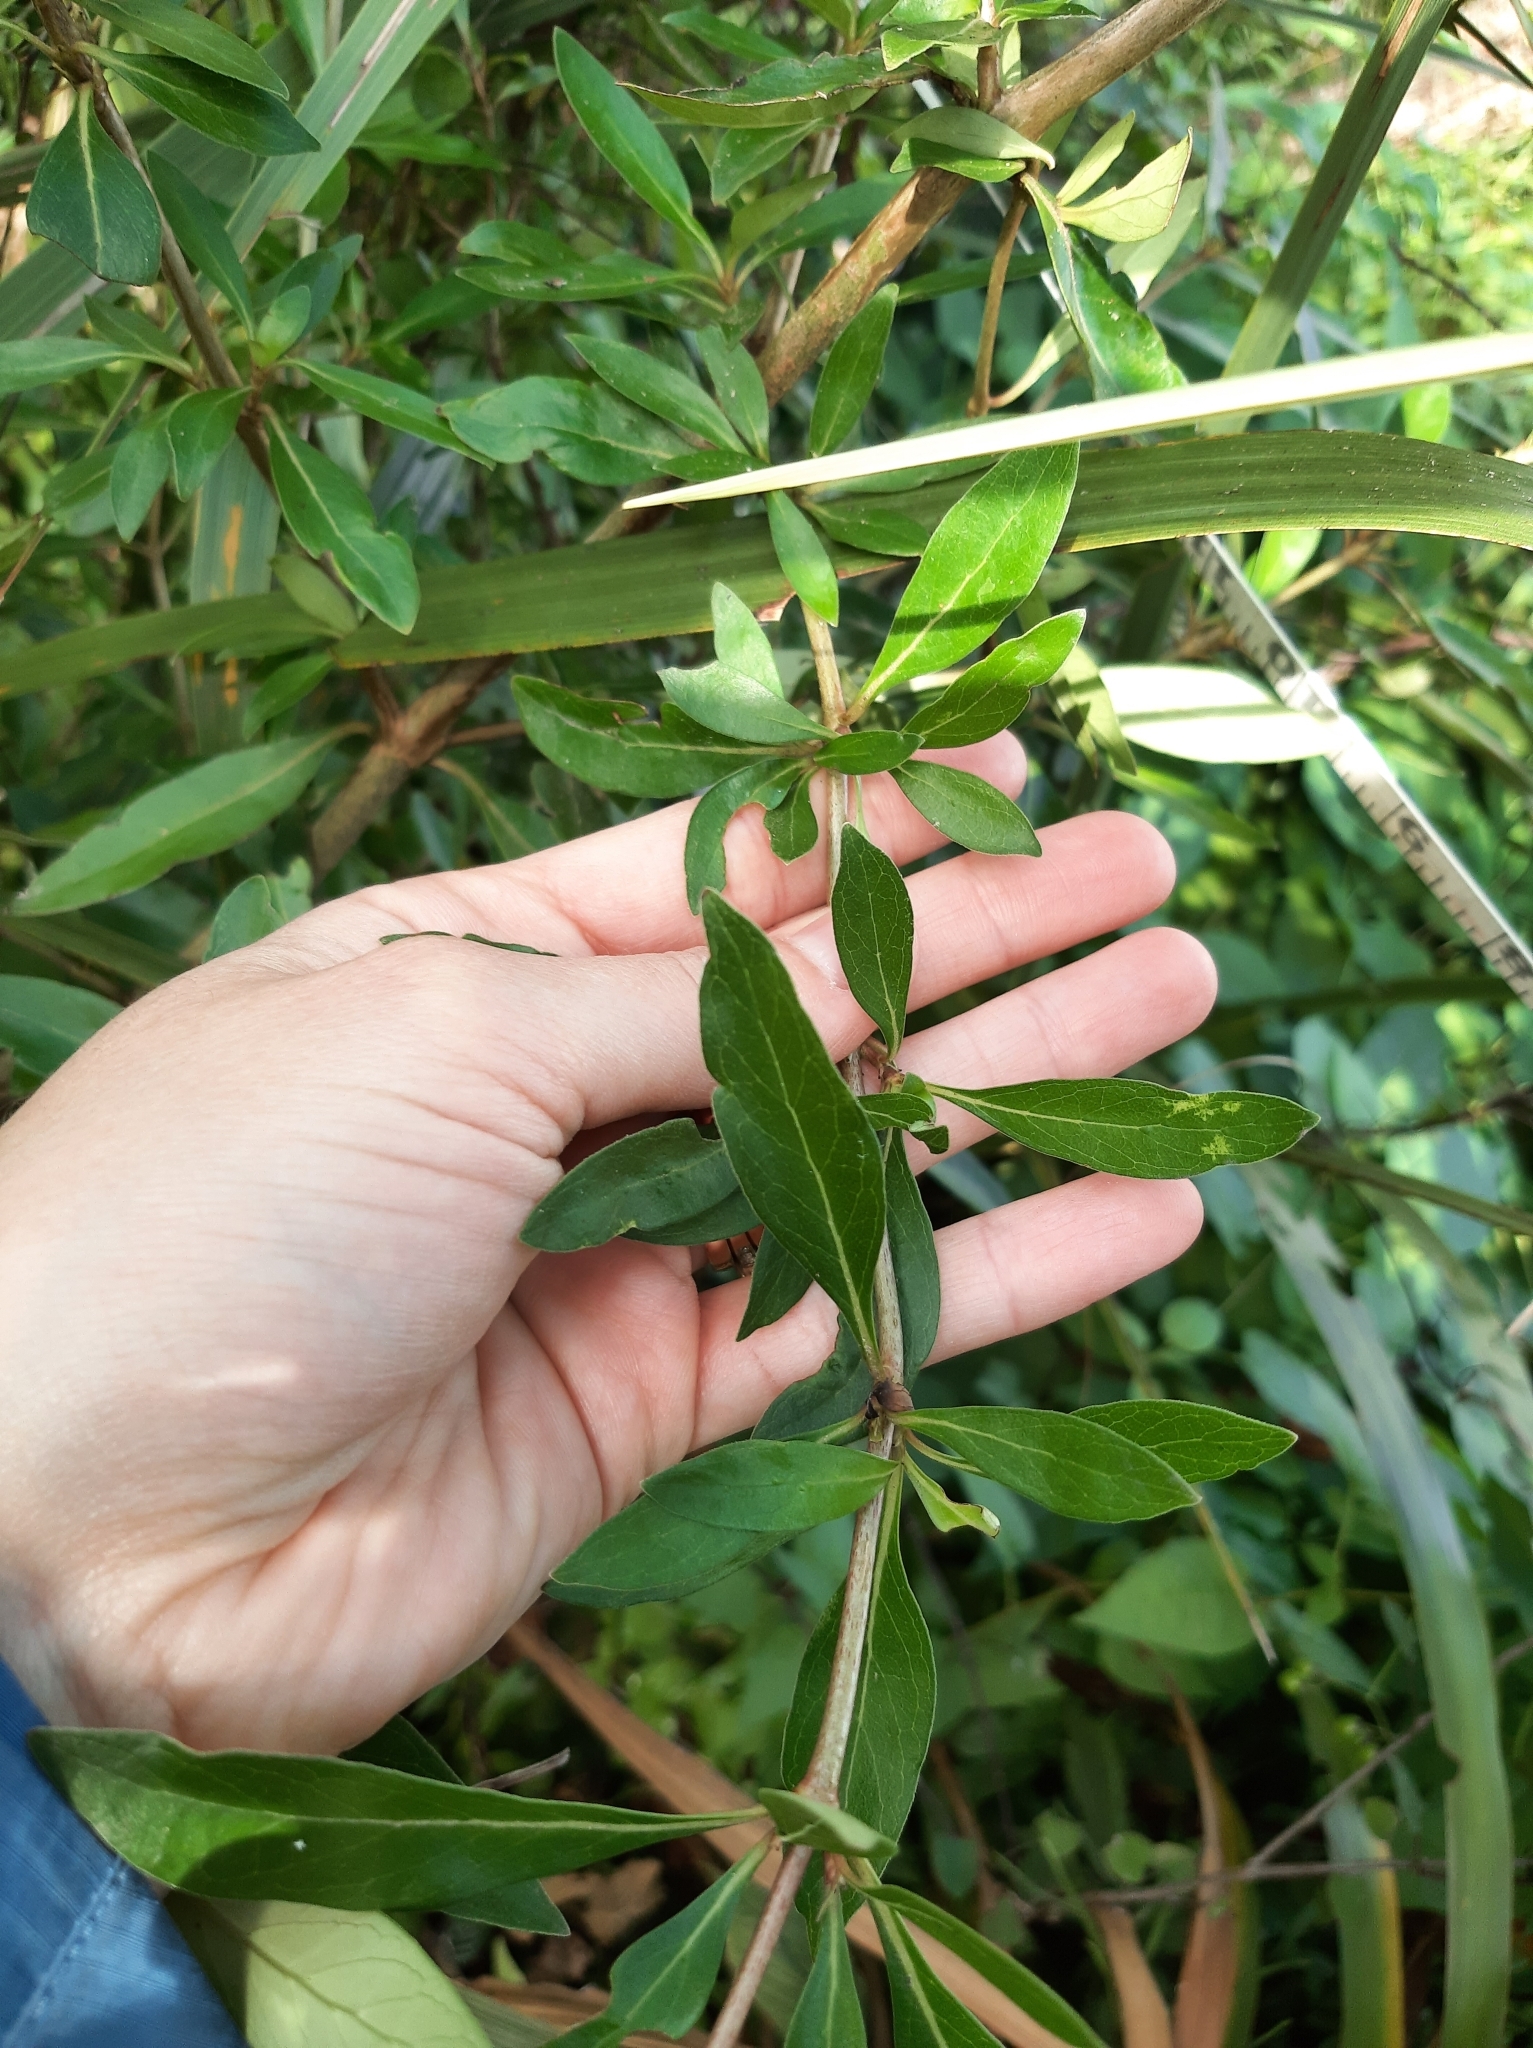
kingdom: Plantae
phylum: Tracheophyta
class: Magnoliopsida
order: Gentianales
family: Rubiaceae
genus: Coprosma
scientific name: Coprosma cunninghamii
